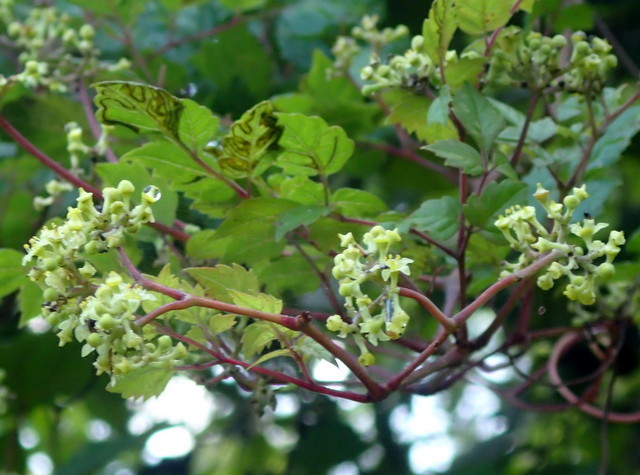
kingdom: Plantae
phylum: Tracheophyta
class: Magnoliopsida
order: Vitales
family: Vitaceae
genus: Nekemias
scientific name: Nekemias arborea
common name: Peppervine
